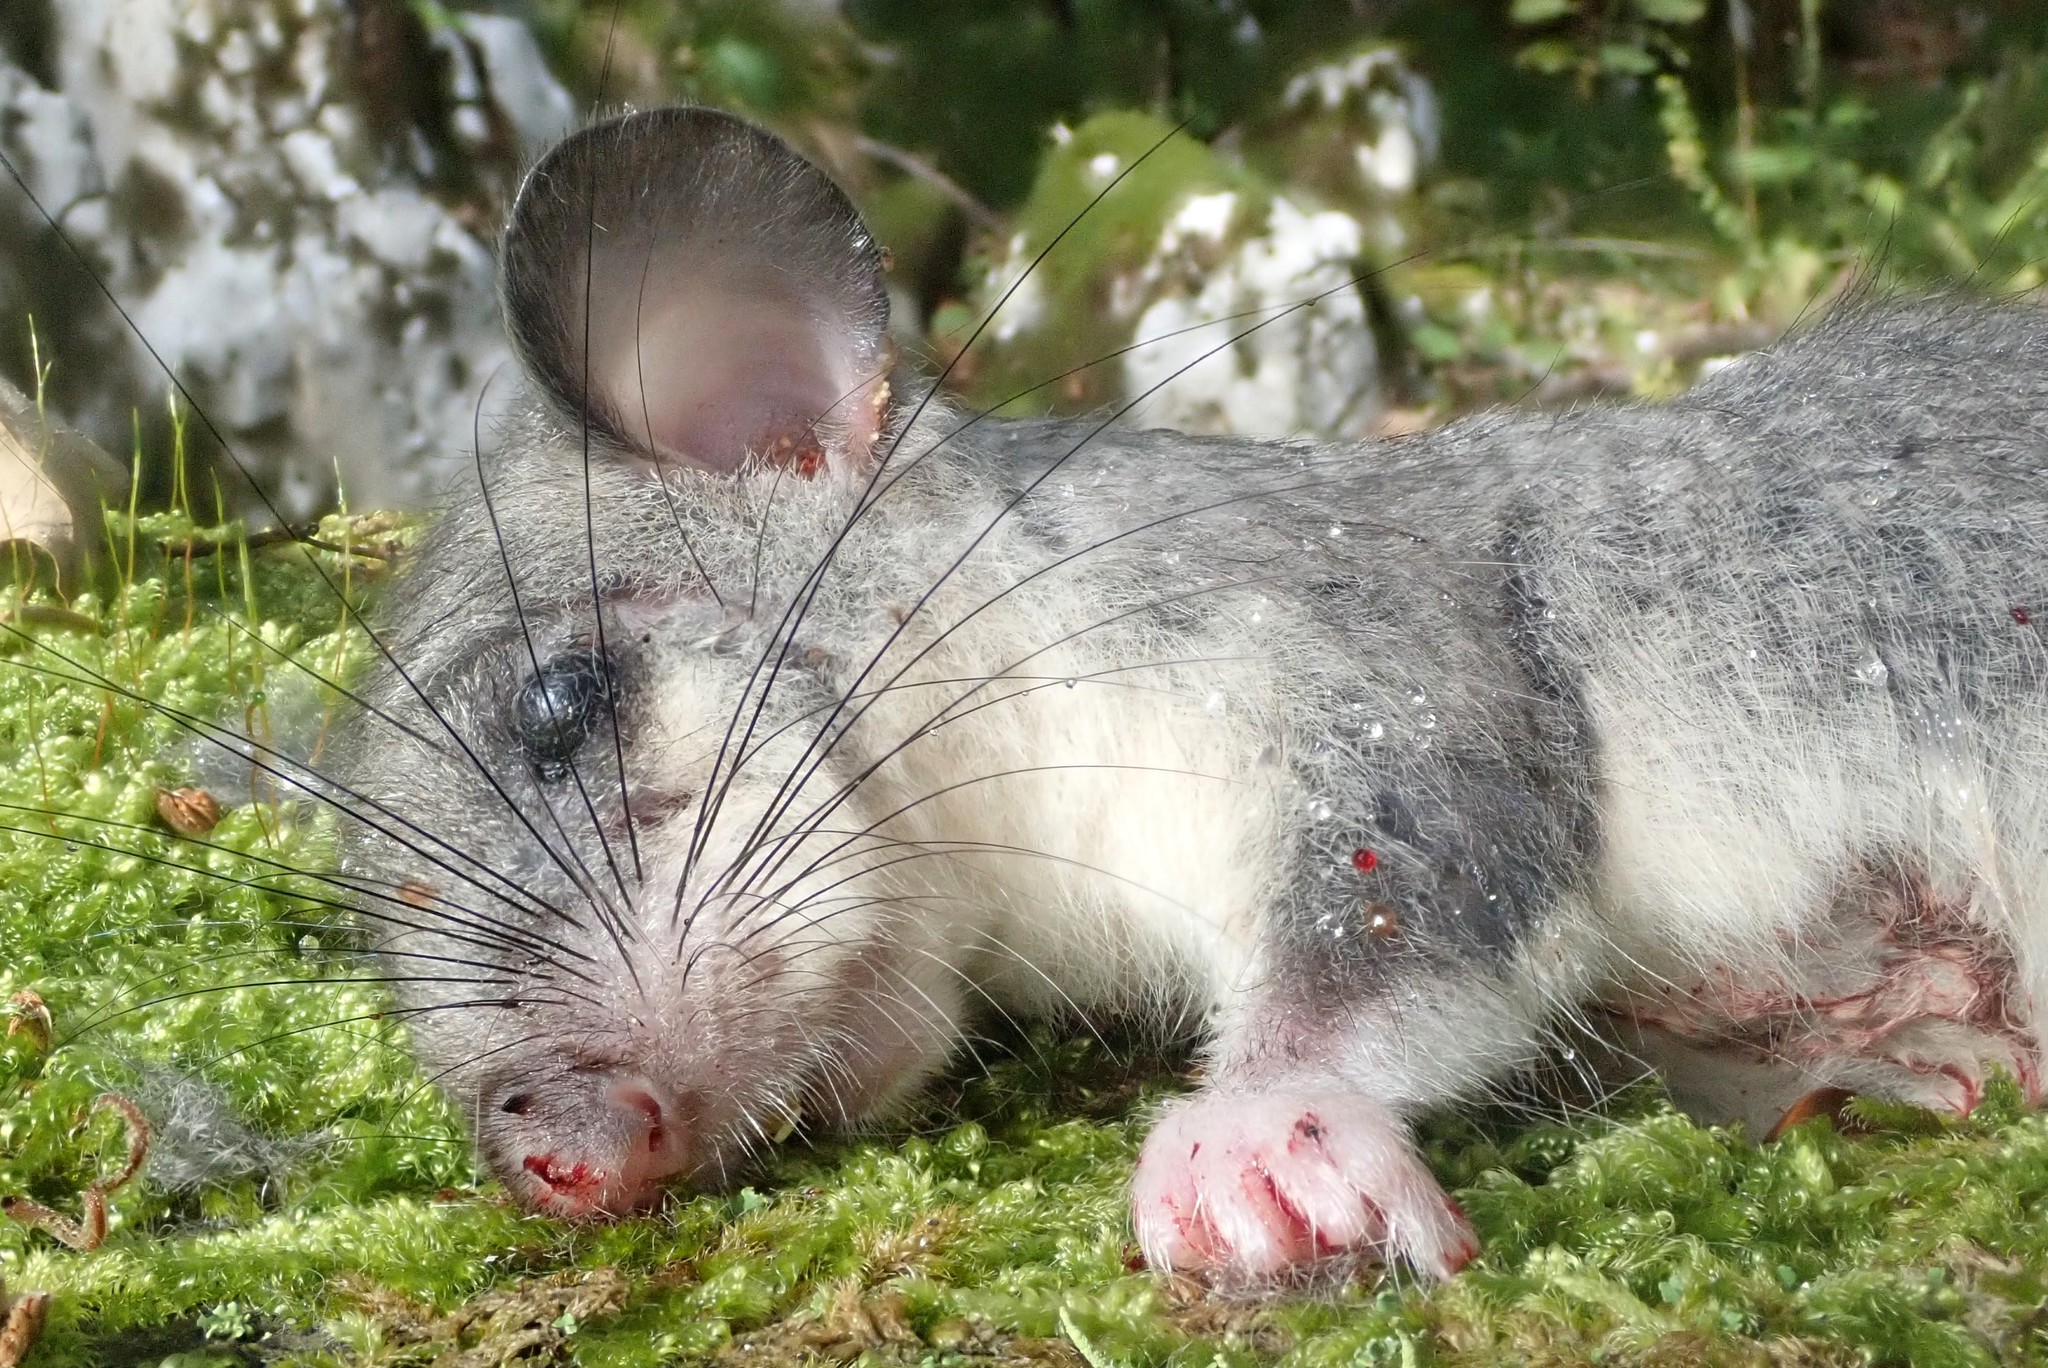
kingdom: Animalia
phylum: Chordata
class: Mammalia
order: Rodentia
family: Gliridae
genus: Glis
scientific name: Glis glis
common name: Fat dormouse
